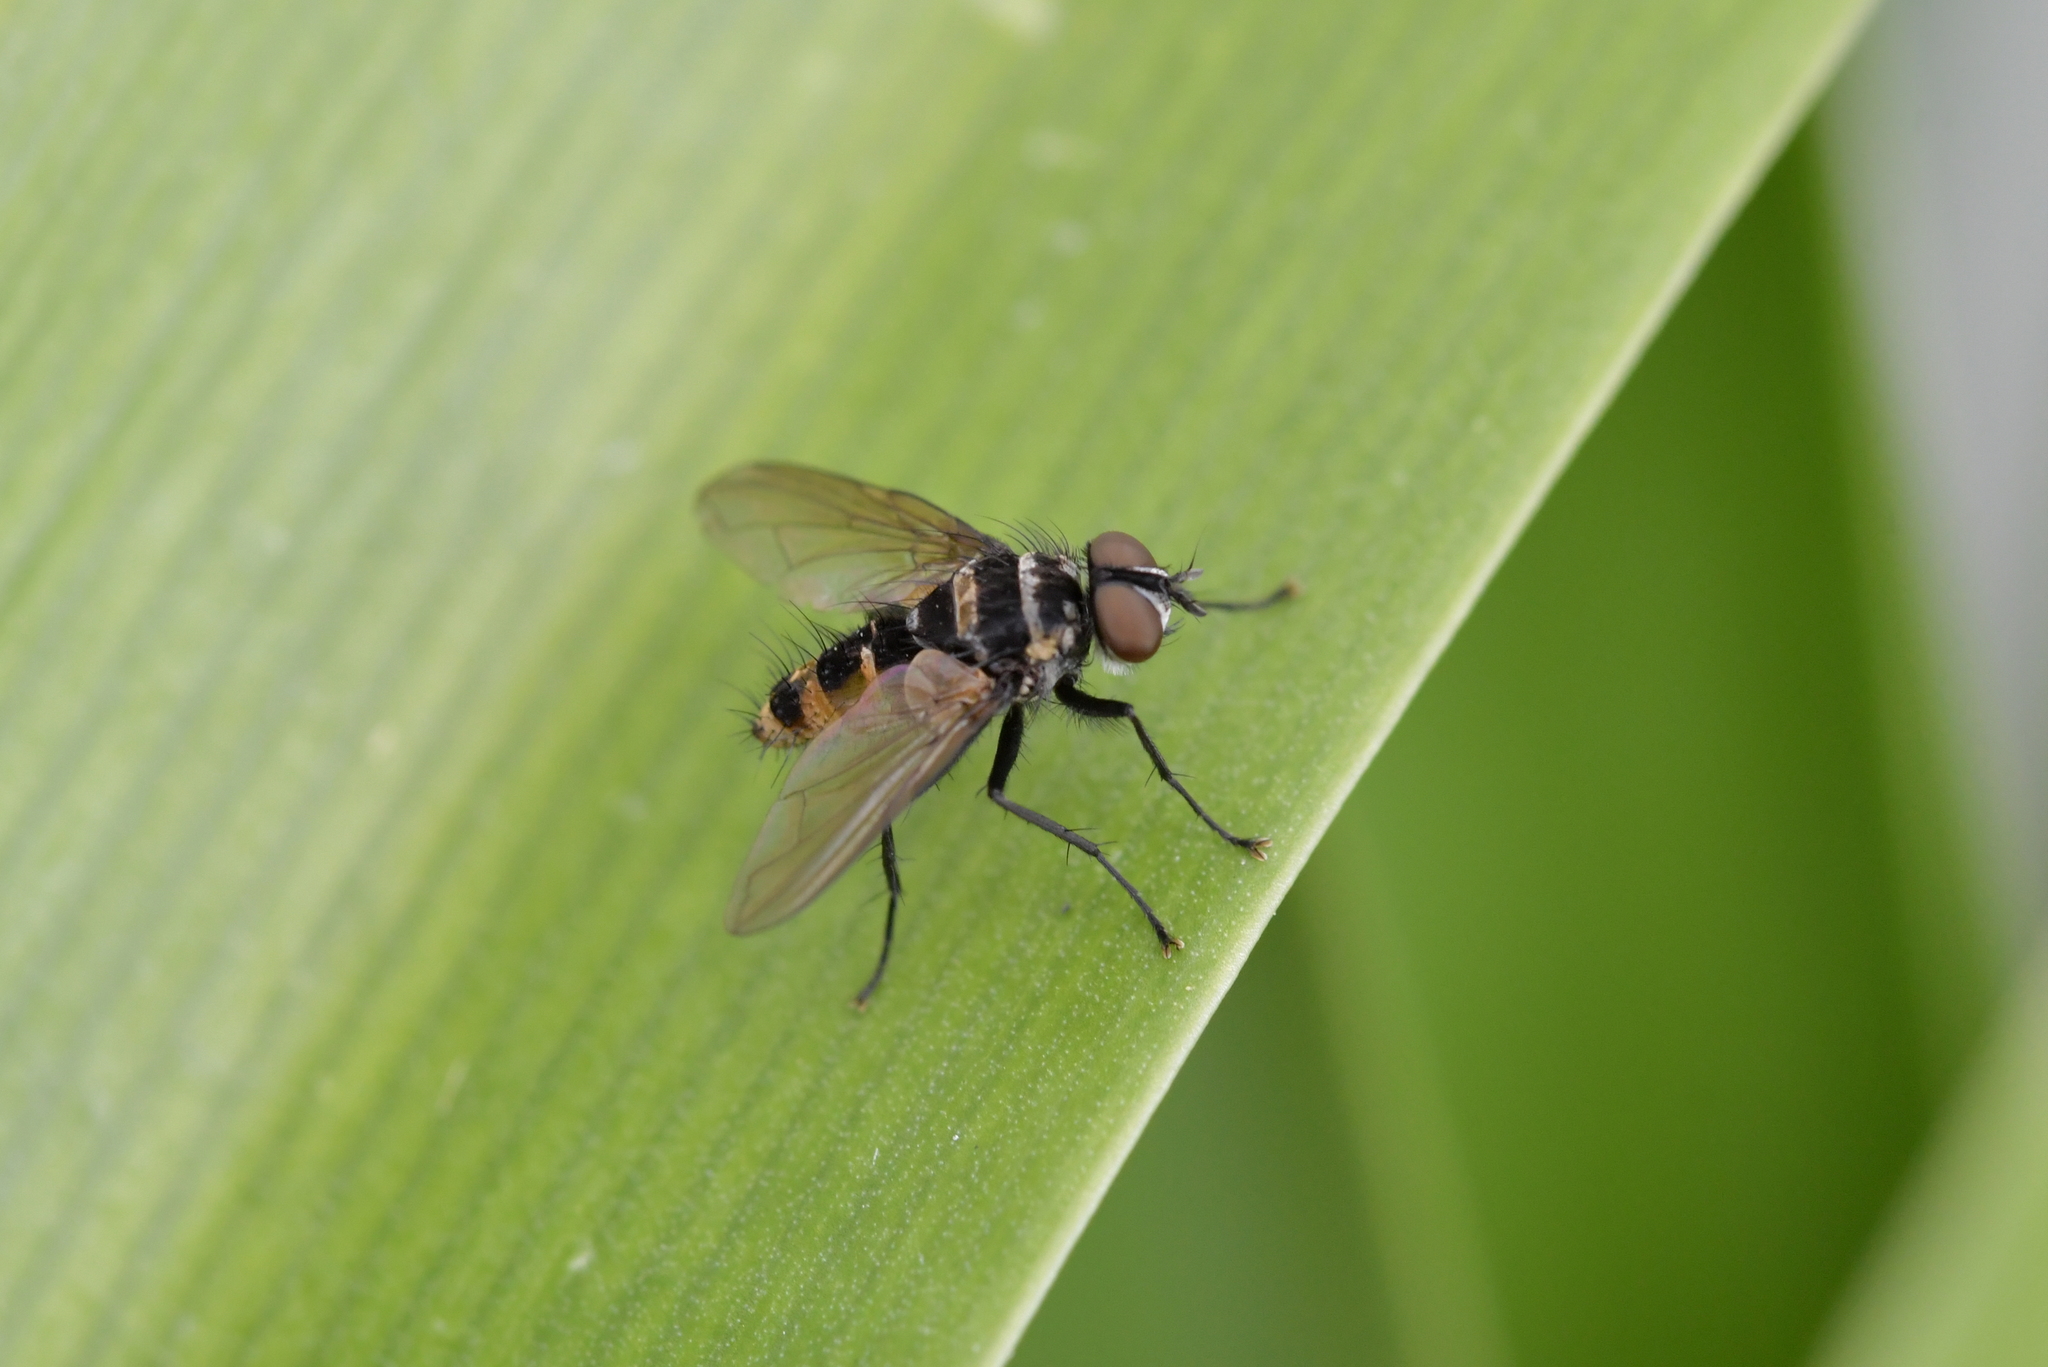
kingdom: Animalia
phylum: Arthropoda
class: Insecta
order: Diptera
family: Tachinidae
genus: Trigonospila
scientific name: Trigonospila brevifacies
